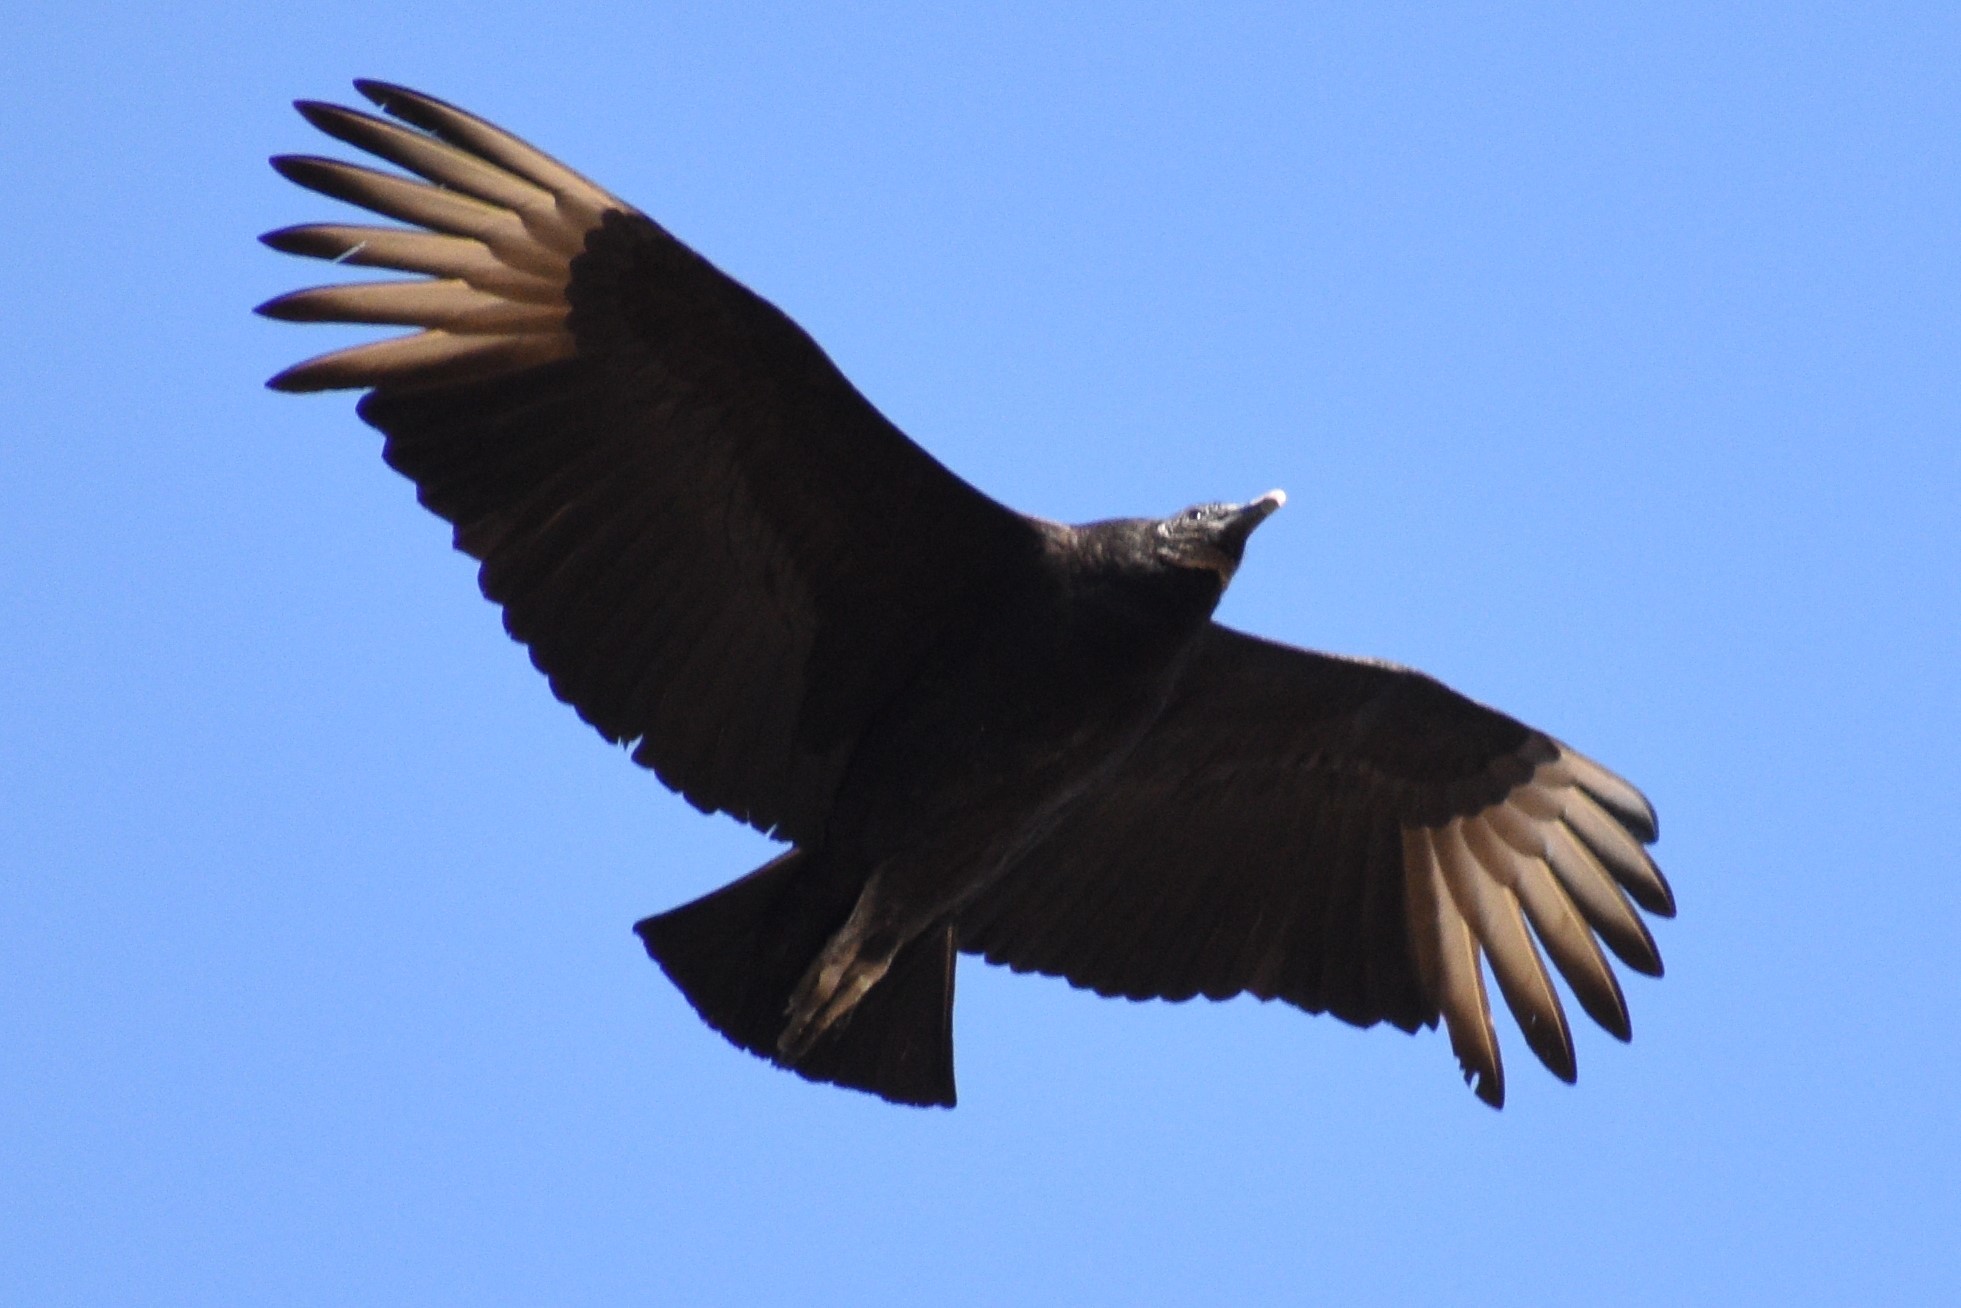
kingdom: Animalia
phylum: Chordata
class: Aves
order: Accipitriformes
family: Cathartidae
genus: Coragyps
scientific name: Coragyps atratus
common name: Black vulture
